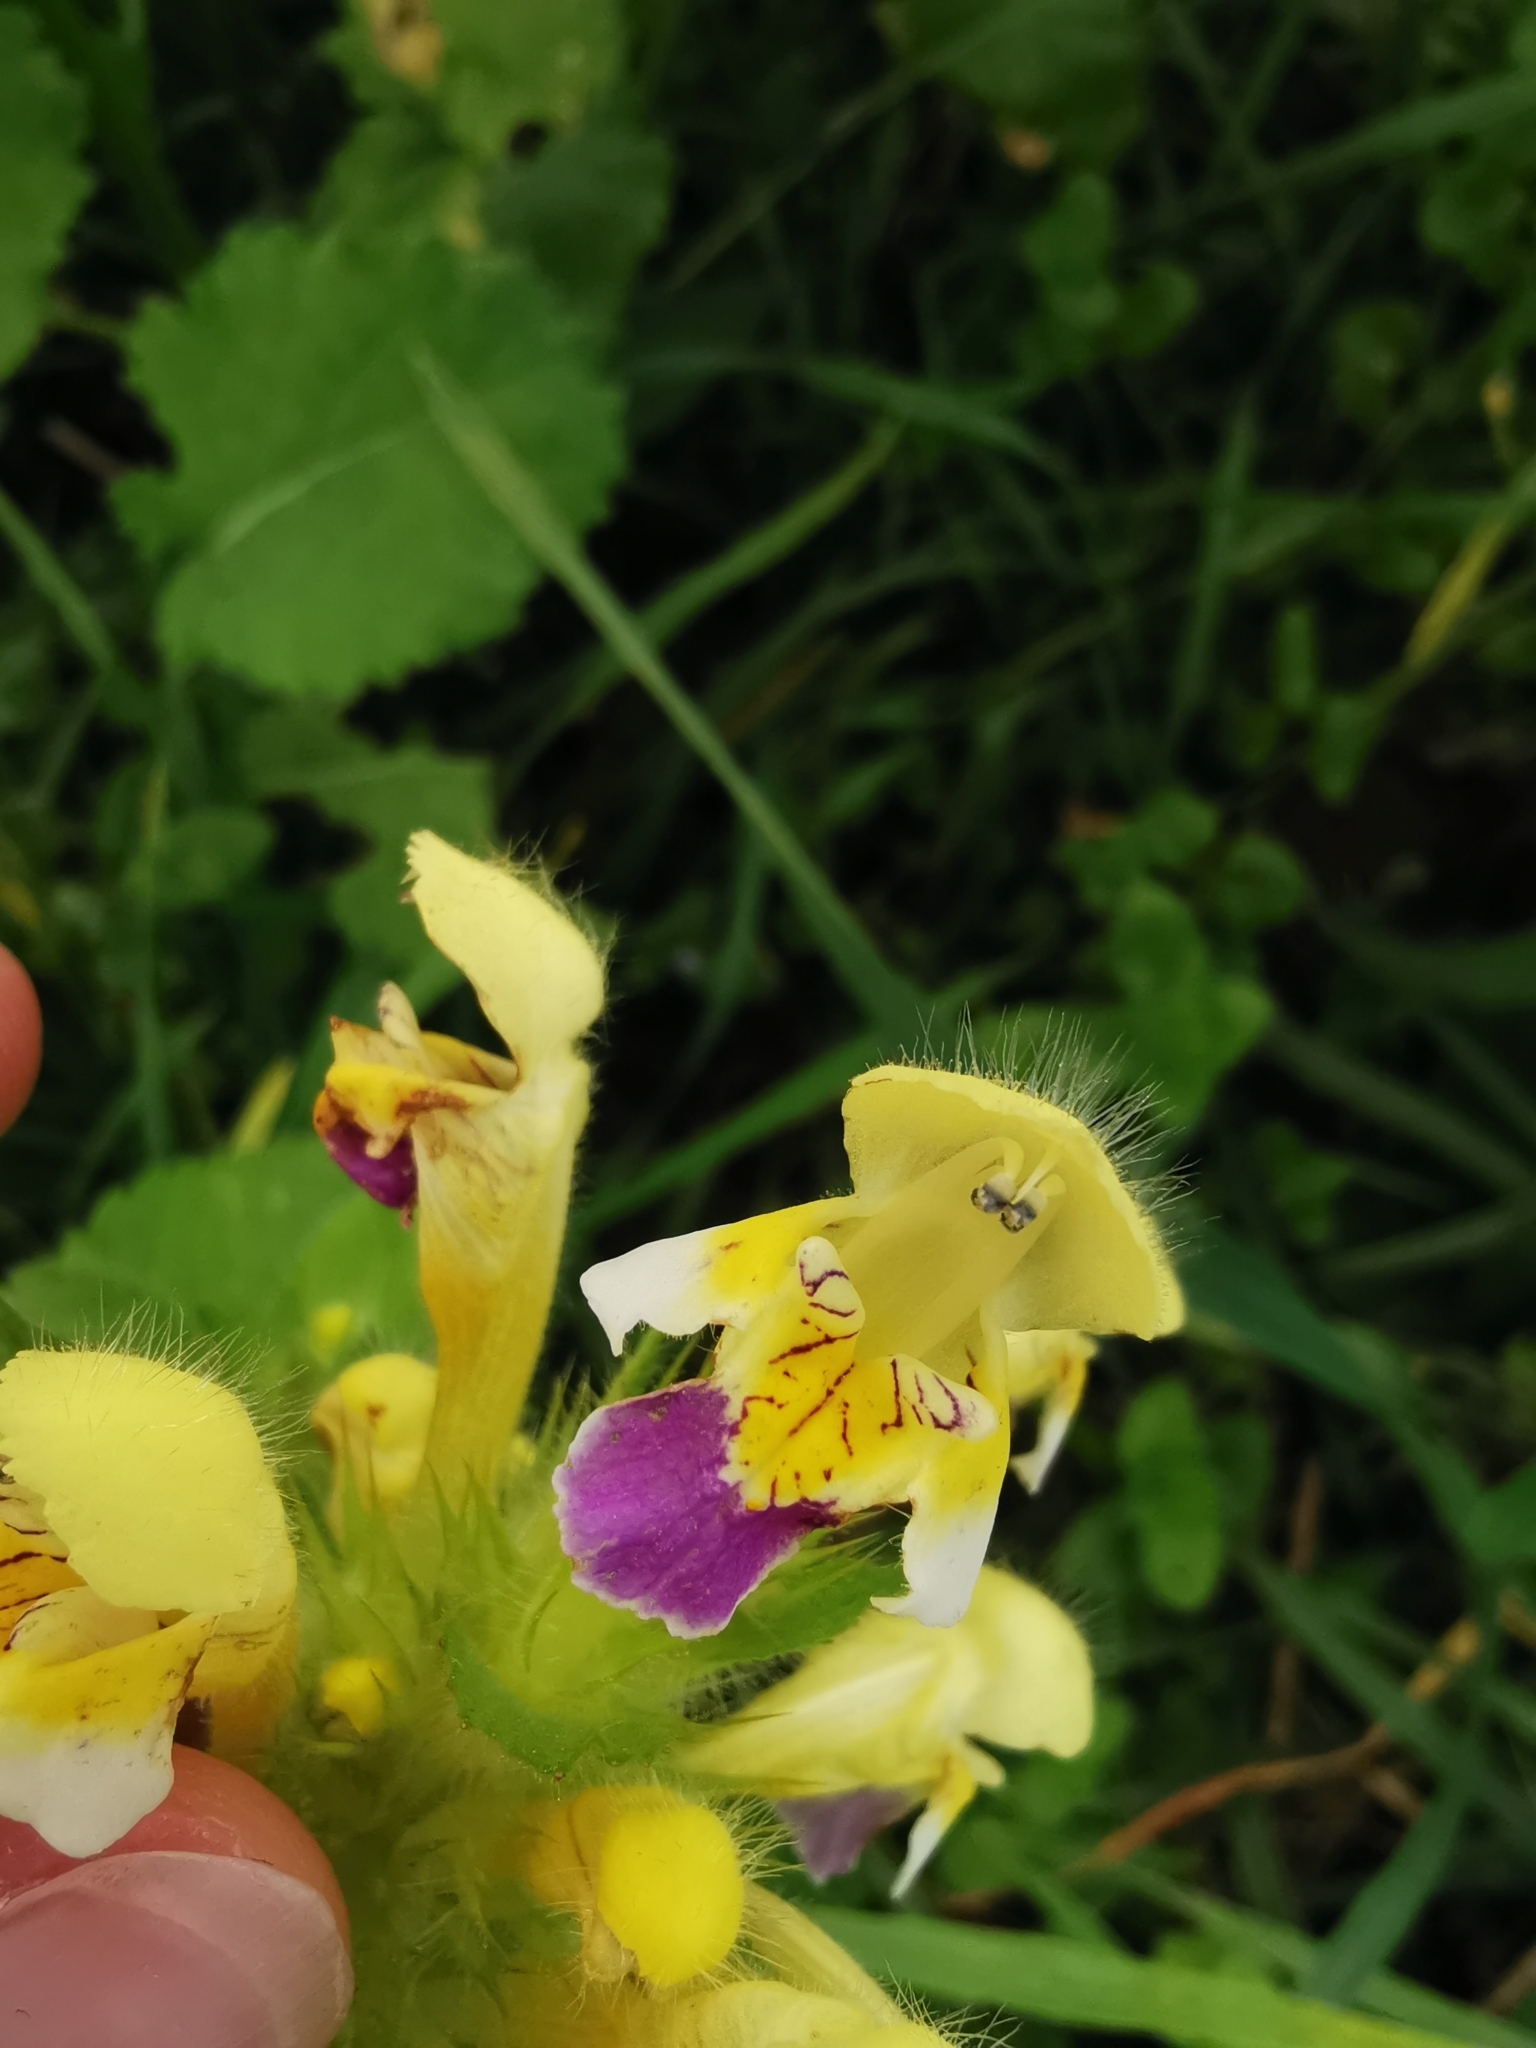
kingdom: Plantae
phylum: Tracheophyta
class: Magnoliopsida
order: Lamiales
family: Lamiaceae
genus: Galeopsis
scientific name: Galeopsis speciosa
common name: Large-flowered hemp-nettle
